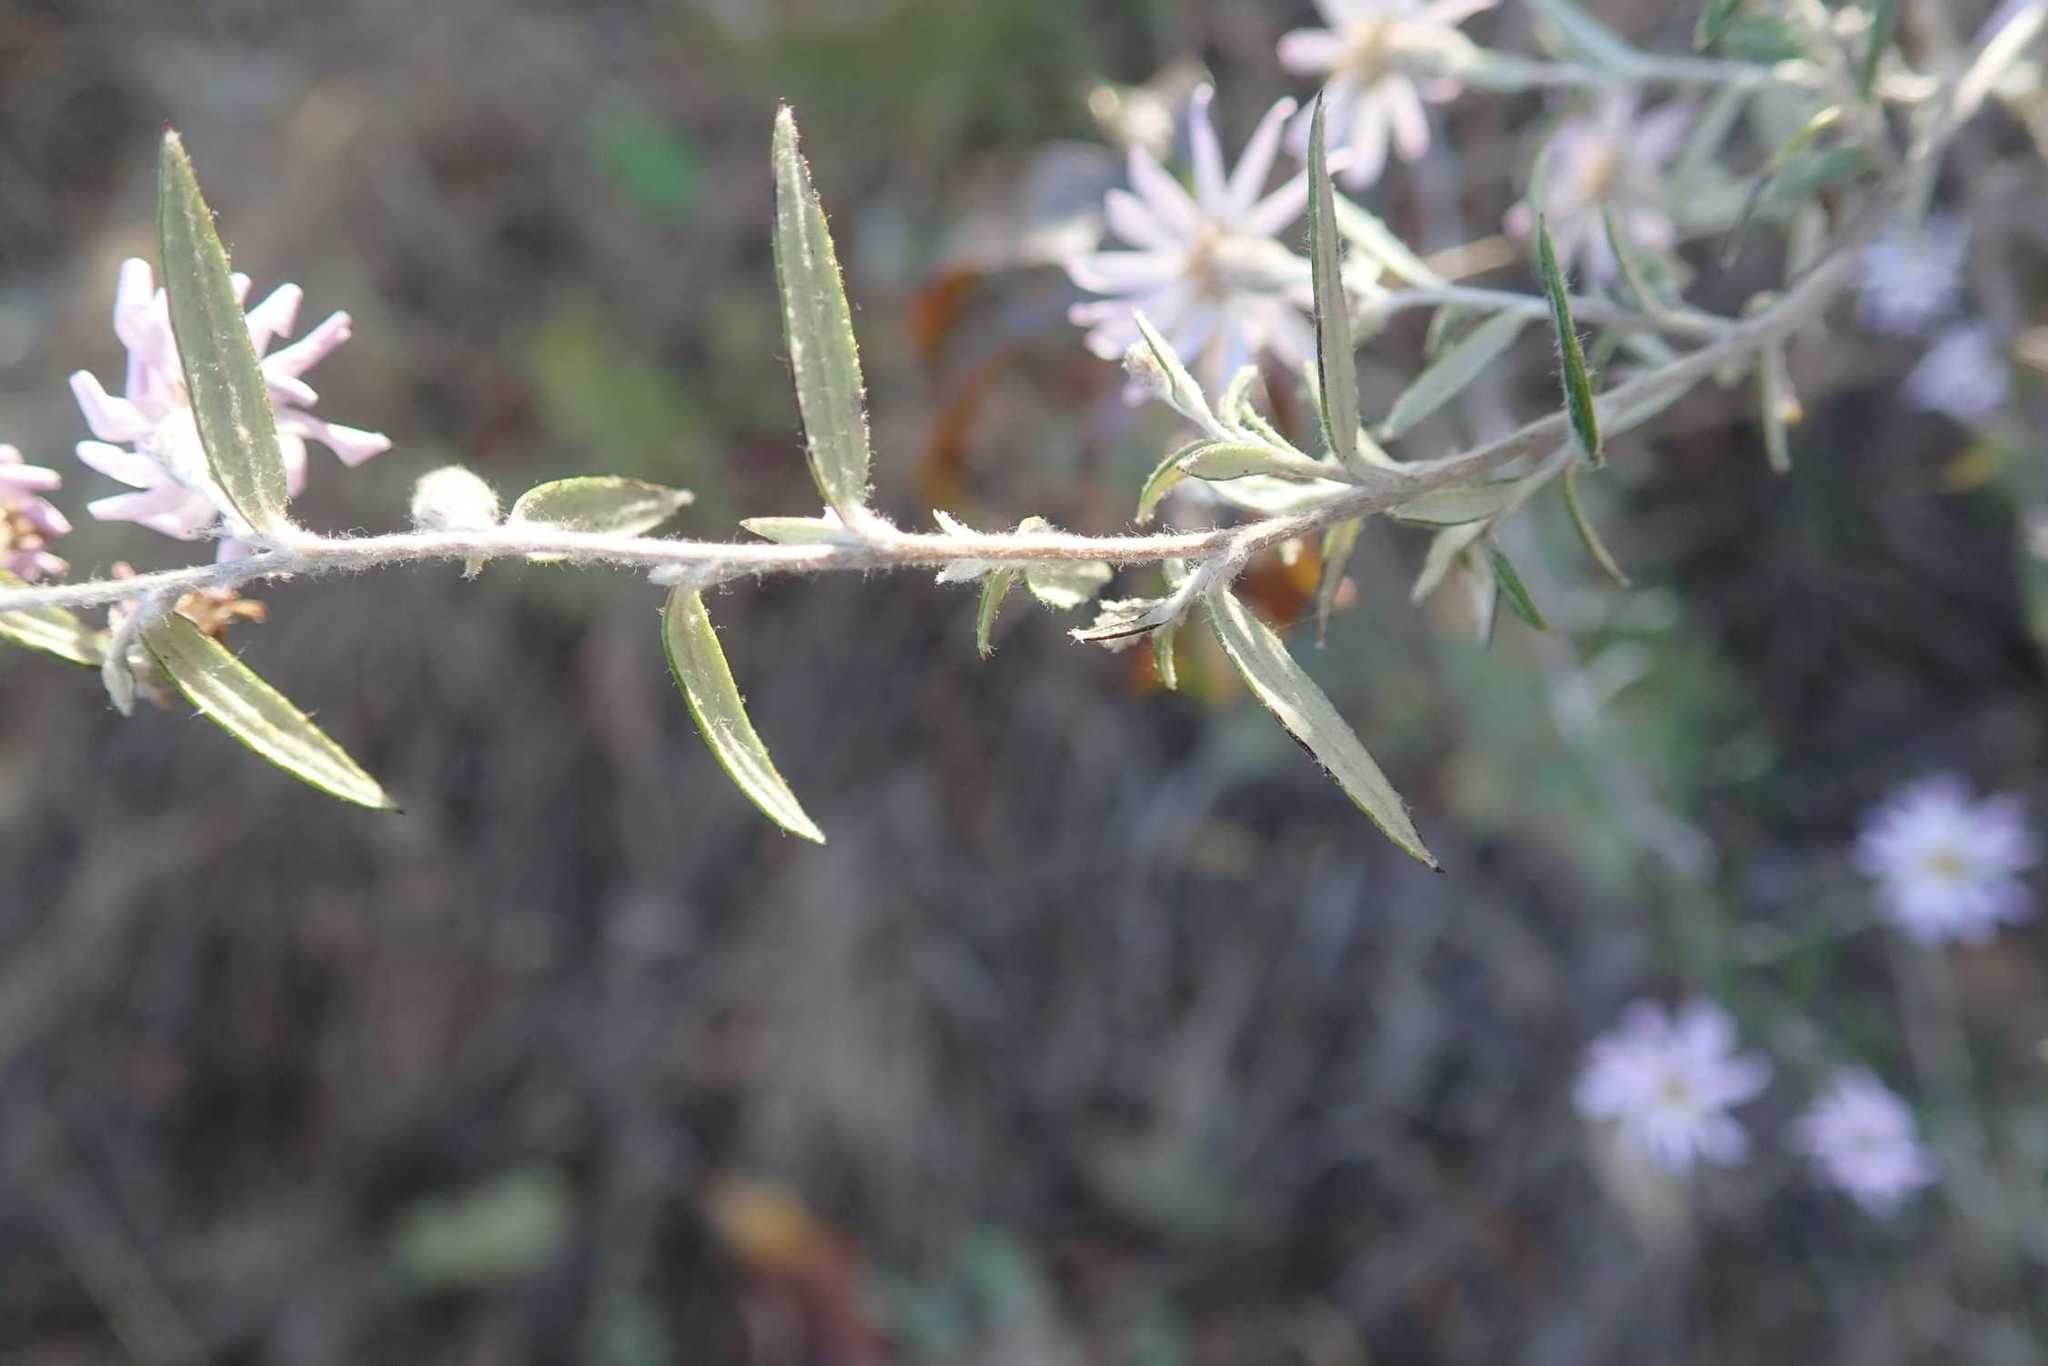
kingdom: Plantae
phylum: Tracheophyta
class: Magnoliopsida
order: Asterales
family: Asteraceae
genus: Athrixia
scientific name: Athrixia phylicoides
